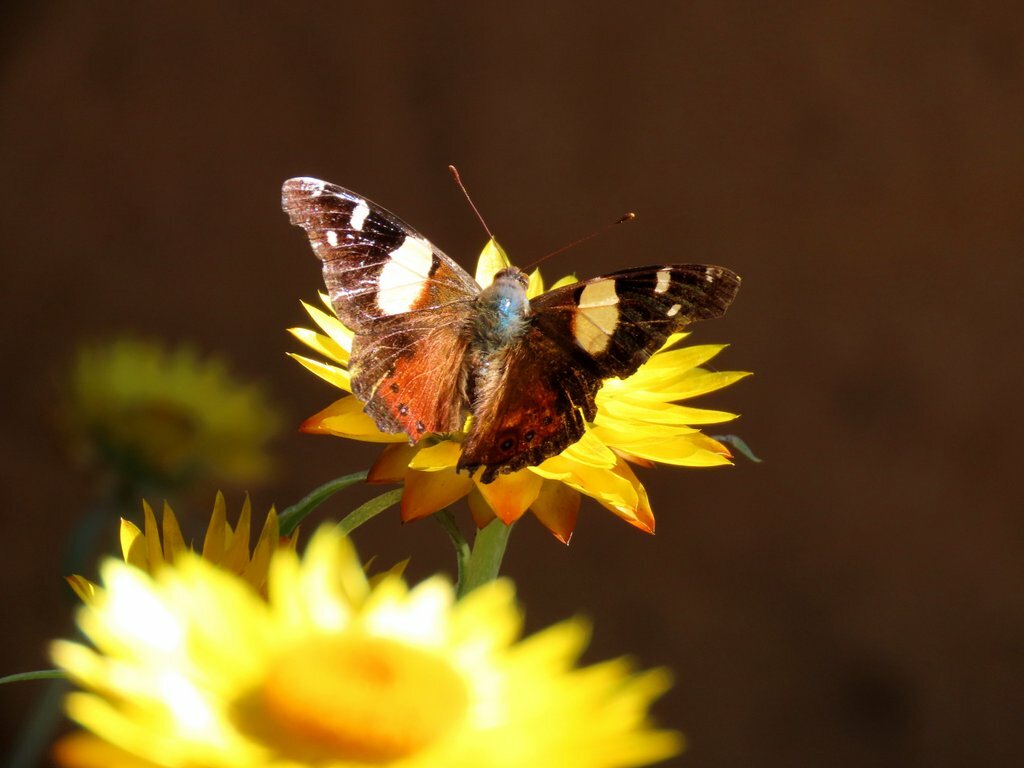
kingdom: Animalia
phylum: Arthropoda
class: Insecta
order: Lepidoptera
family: Nymphalidae
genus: Vanessa
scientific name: Vanessa itea
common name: Yellow admiral
